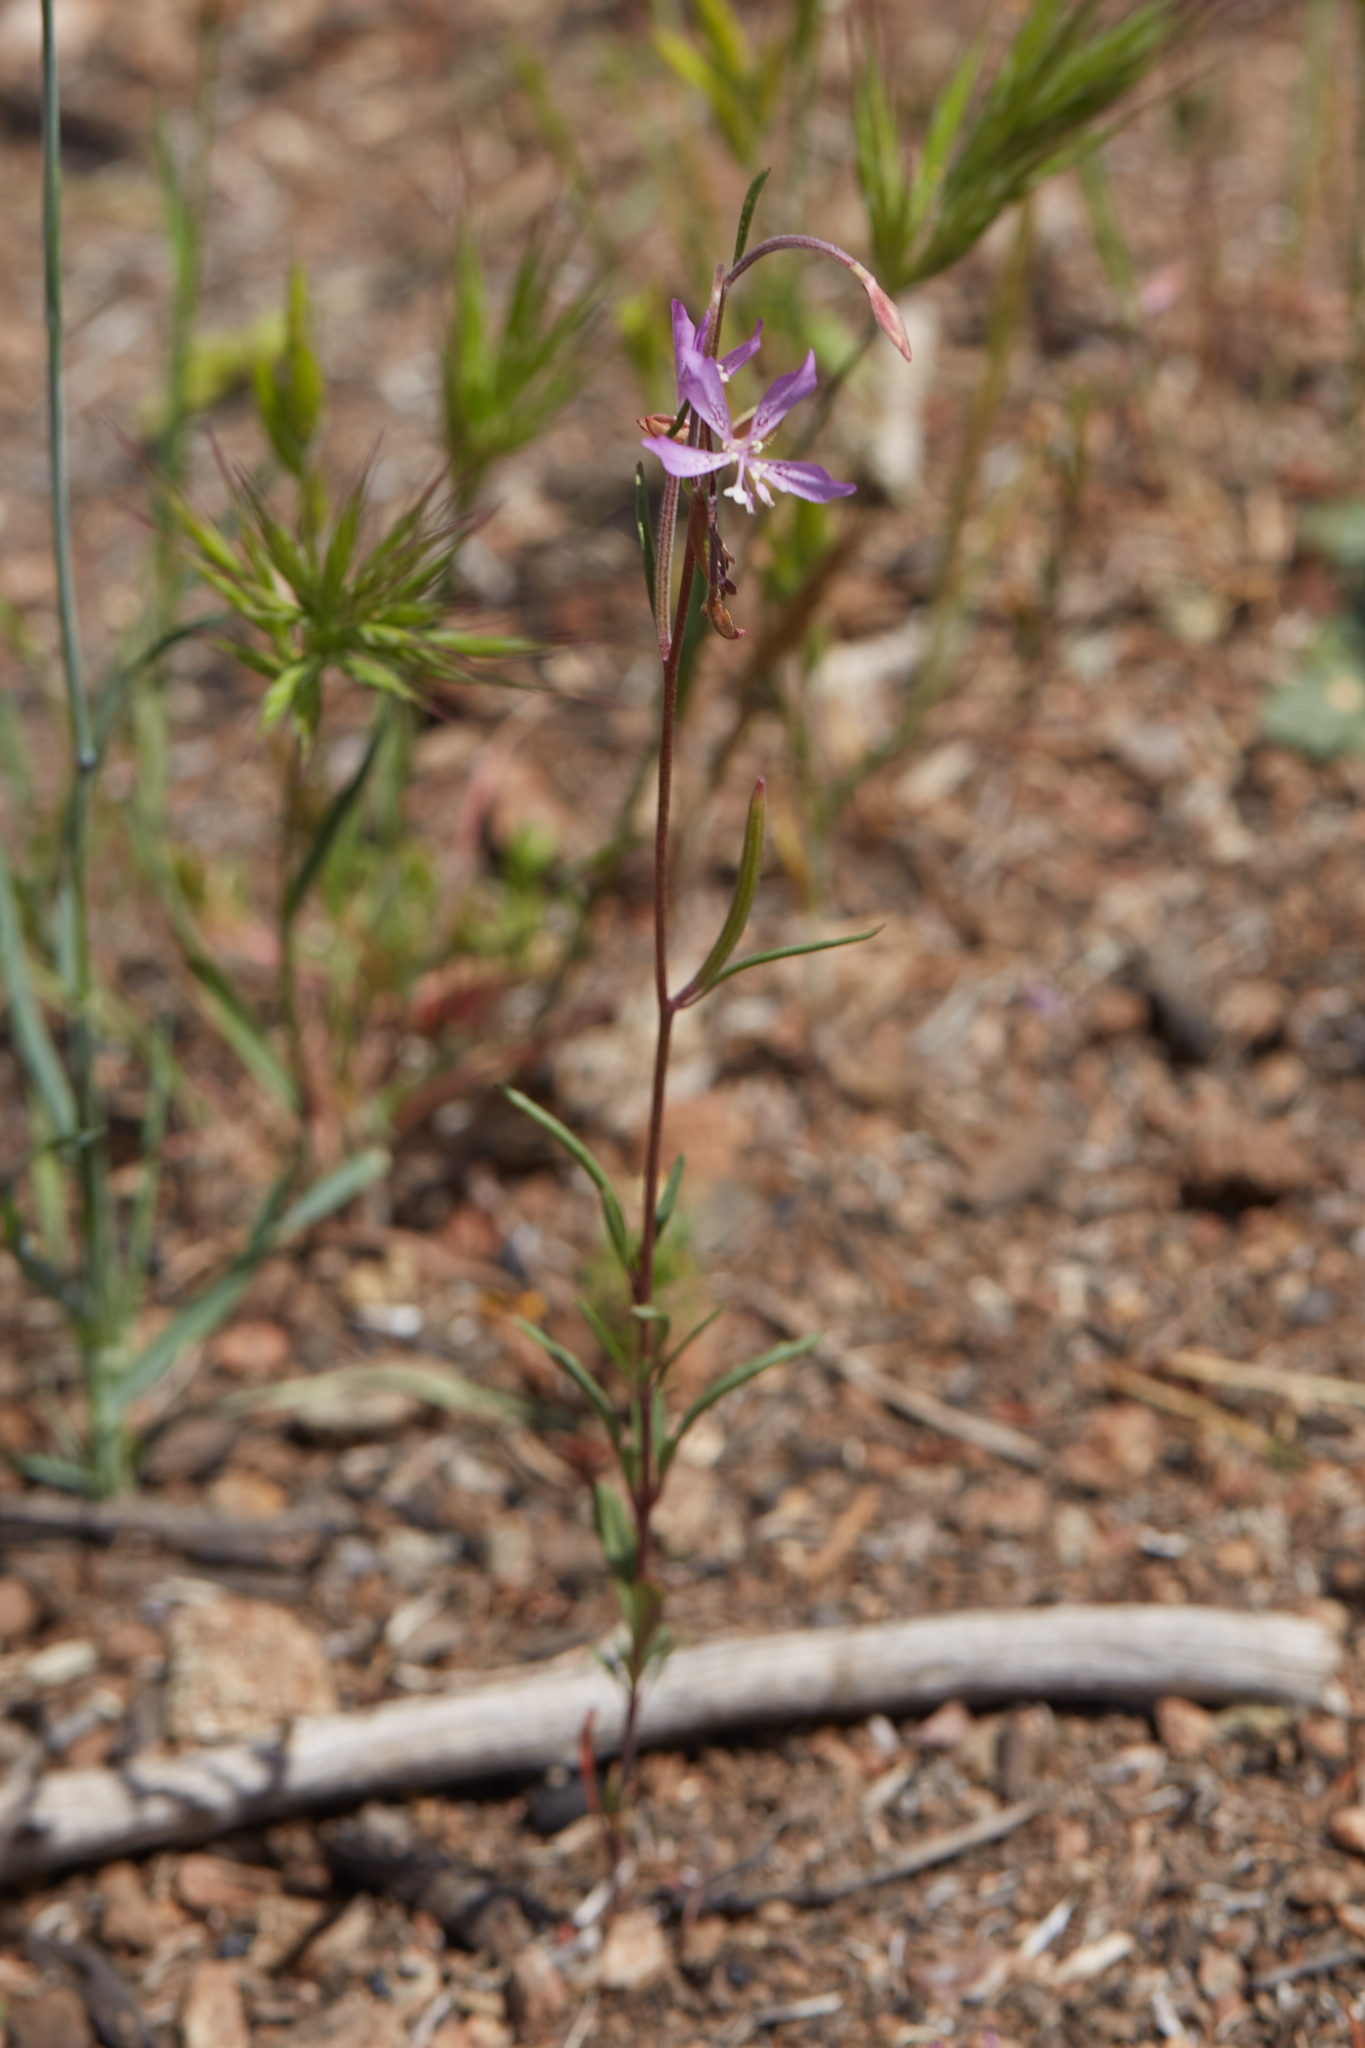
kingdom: Plantae
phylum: Tracheophyta
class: Magnoliopsida
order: Myrtales
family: Onagraceae
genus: Clarkia
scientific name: Clarkia modesta
